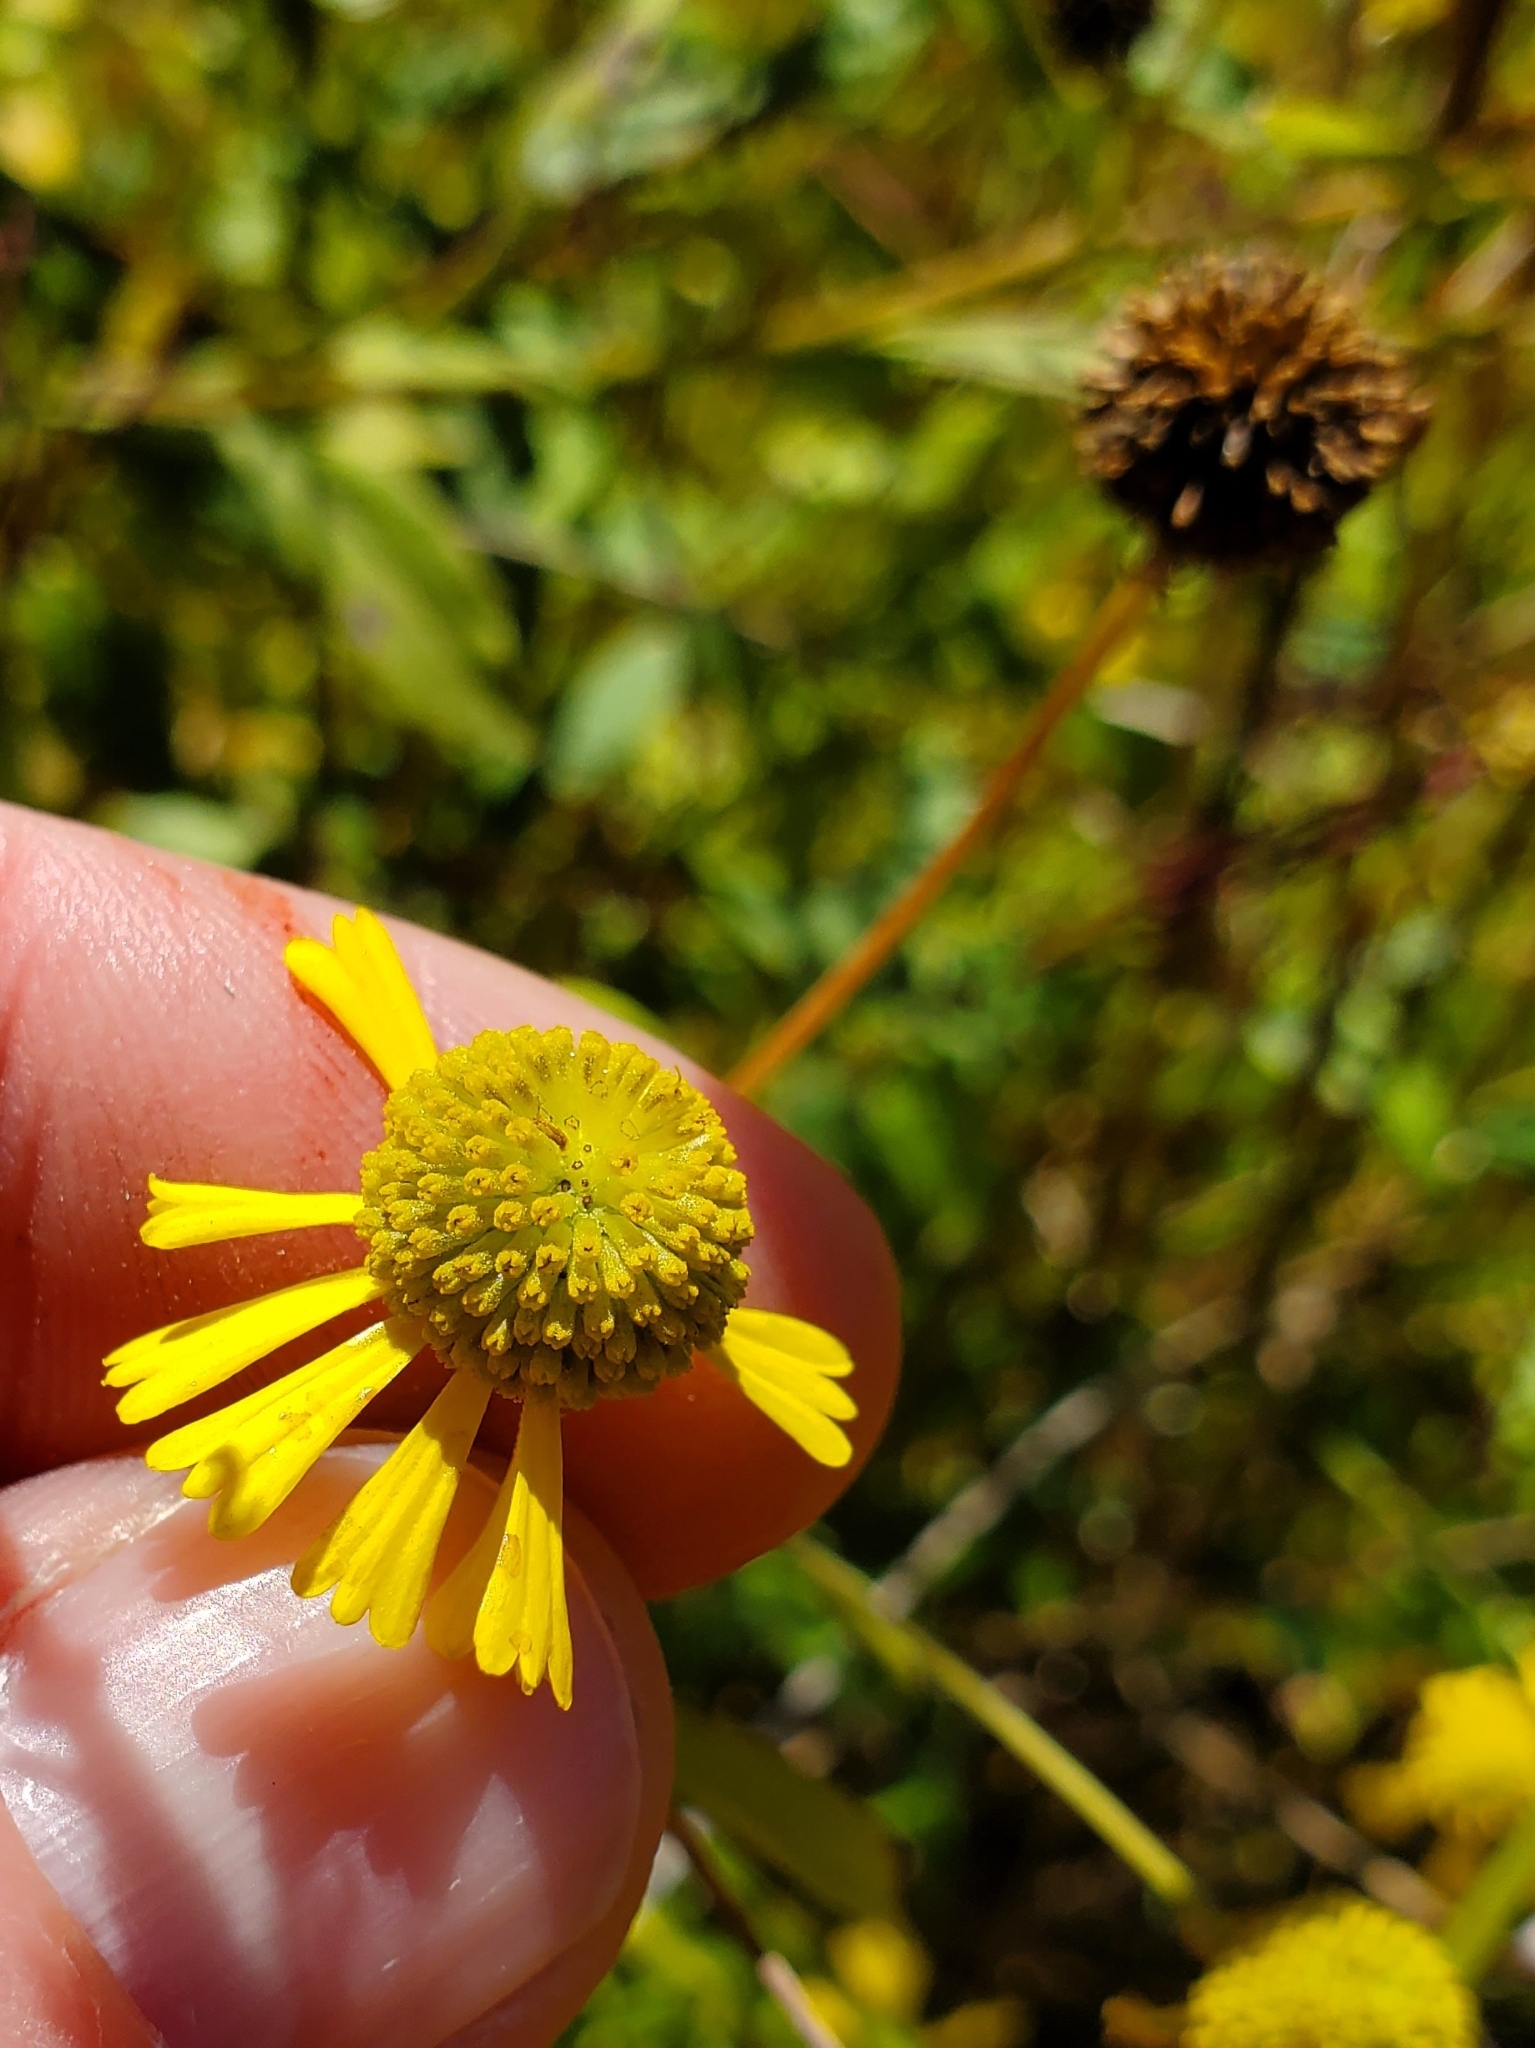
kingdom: Plantae
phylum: Tracheophyta
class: Magnoliopsida
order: Asterales
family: Asteraceae
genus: Helenium
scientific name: Helenium autumnale
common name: Sneezeweed
